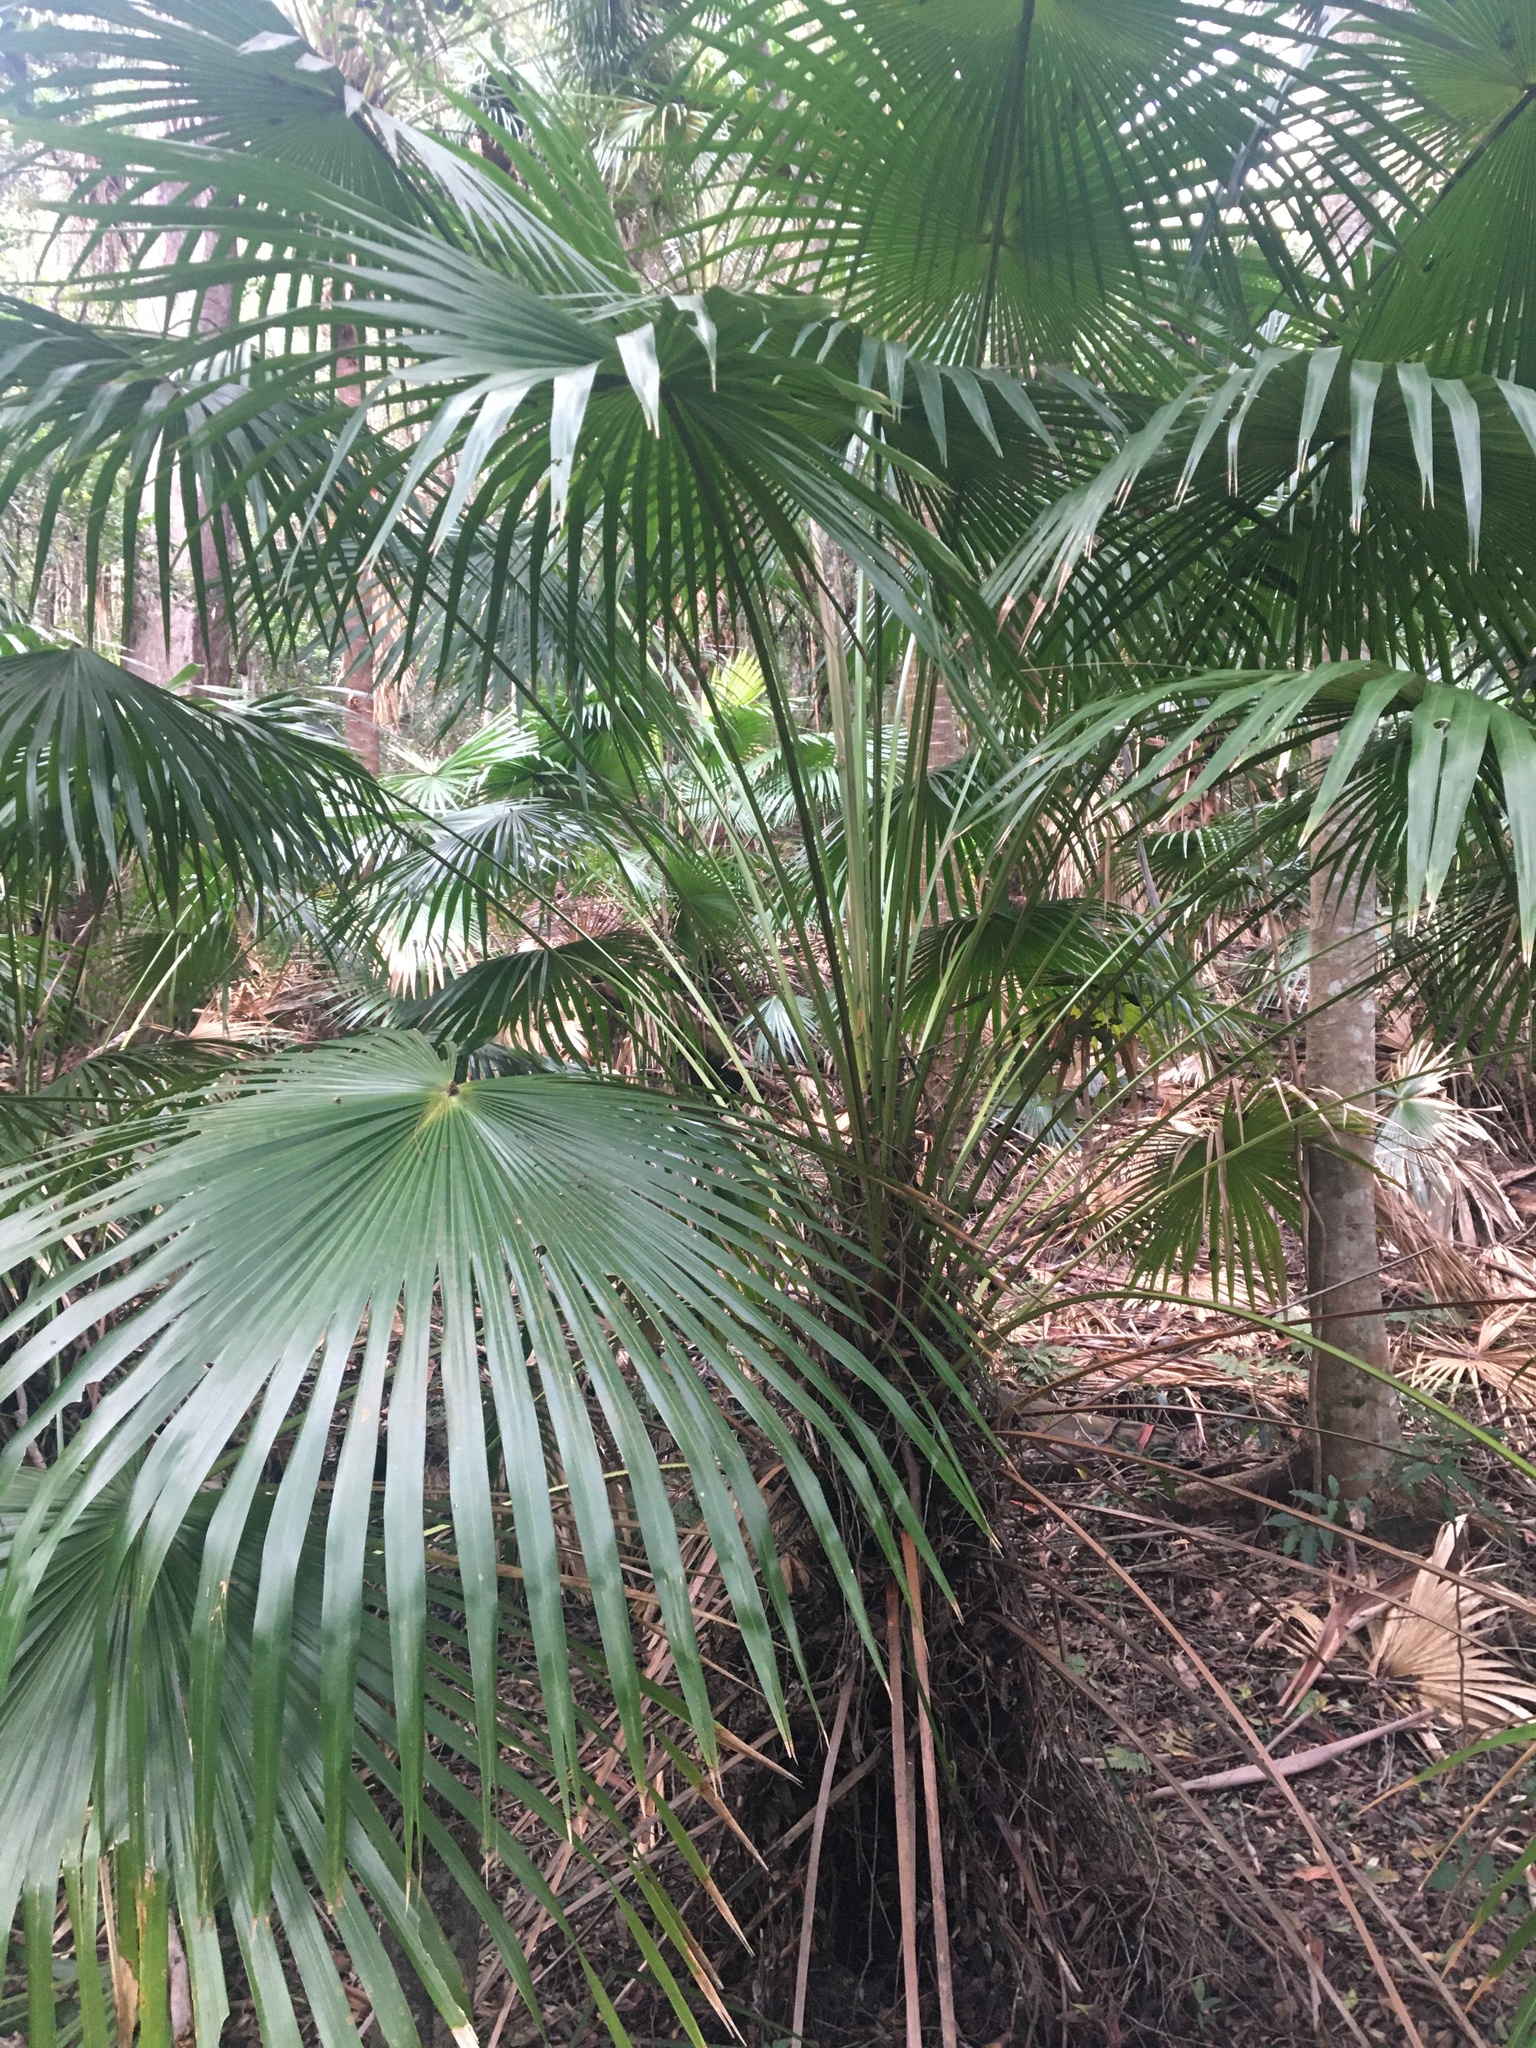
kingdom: Plantae
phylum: Tracheophyta
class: Liliopsida
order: Arecales
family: Arecaceae
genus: Livistona
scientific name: Livistona australis
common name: Cabbage fan palm
